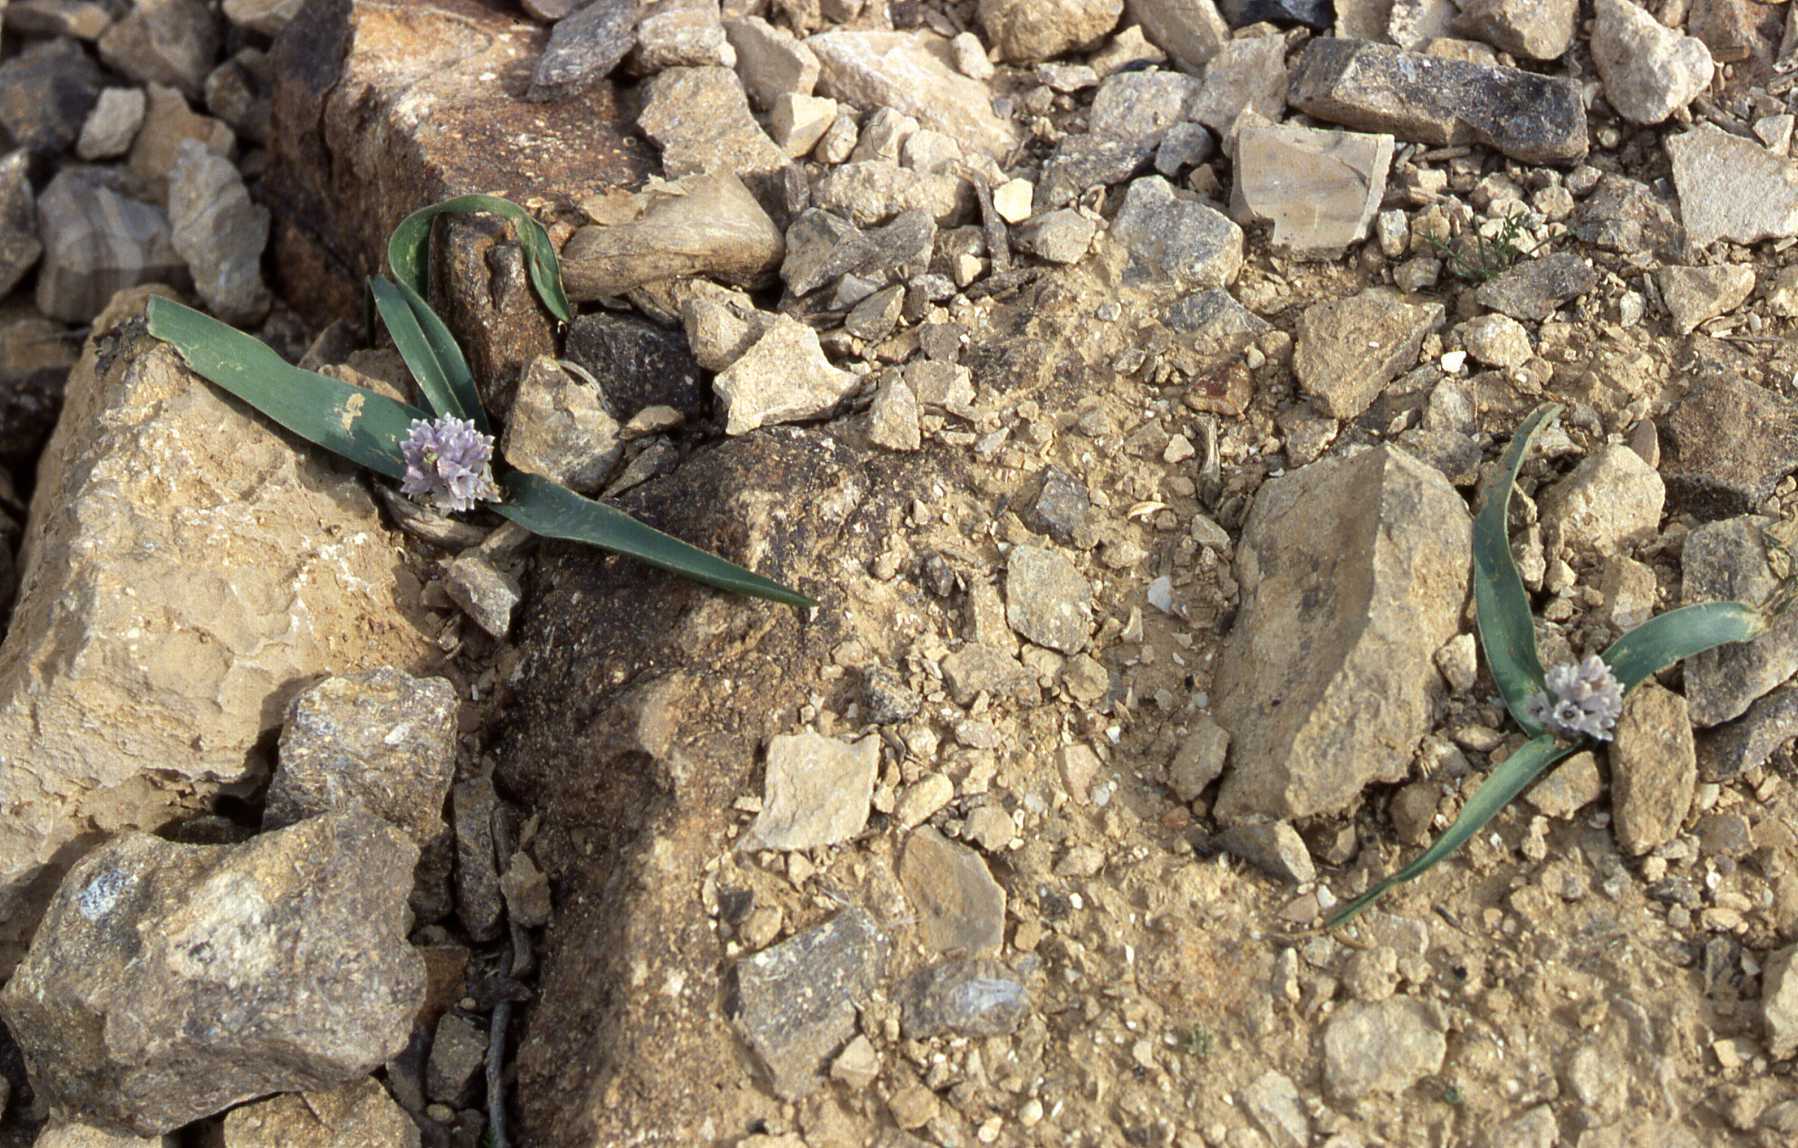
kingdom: Plantae
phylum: Tracheophyta
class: Liliopsida
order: Asparagales
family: Asparagaceae
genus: Bellevalia
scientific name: Bellevalia desertorum
